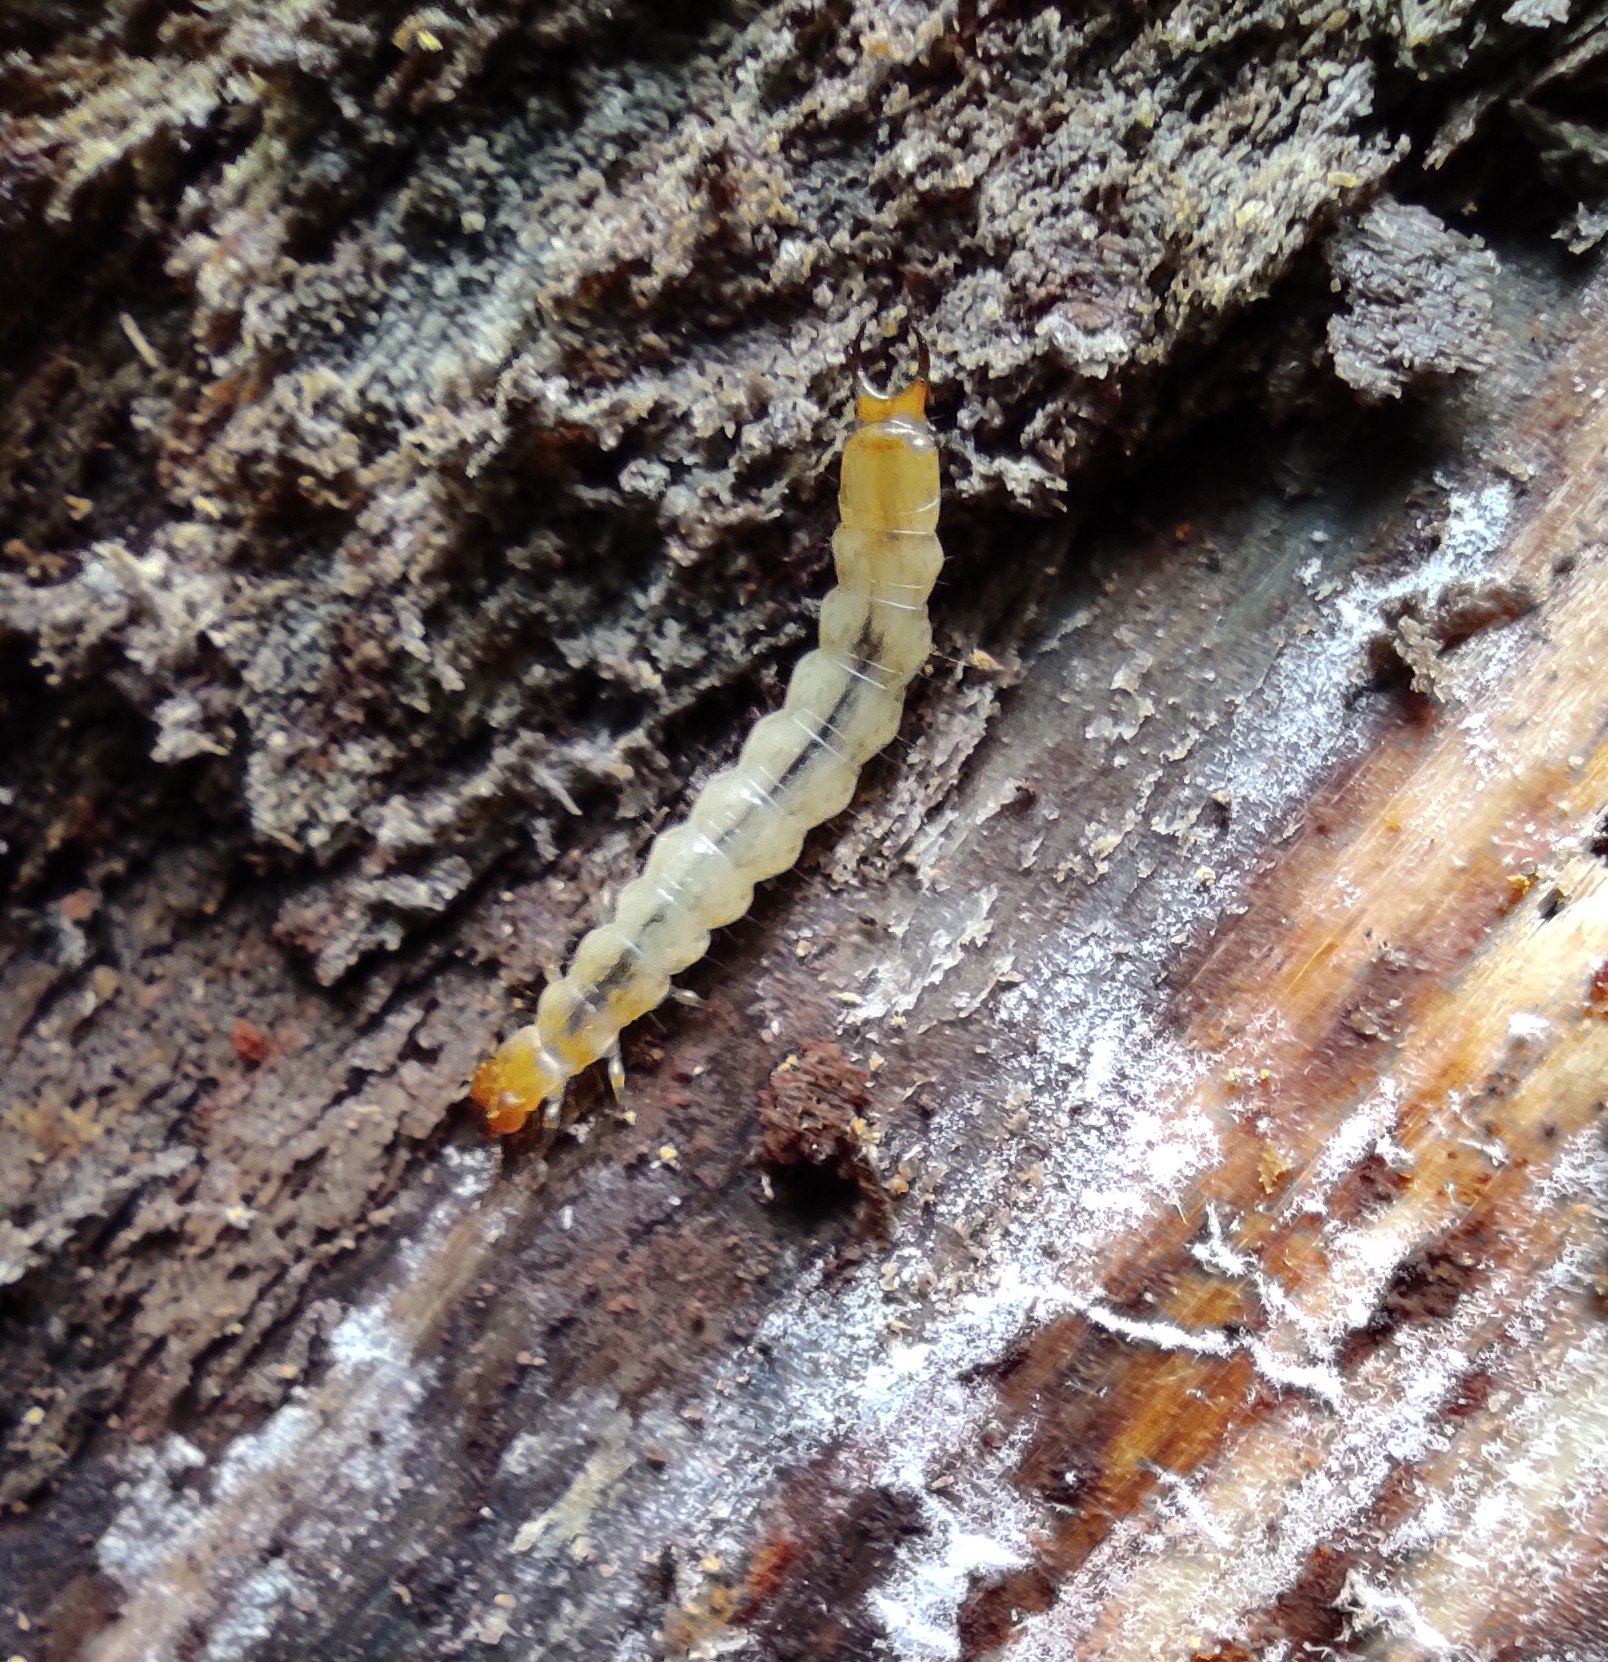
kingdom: Animalia
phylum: Arthropoda
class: Insecta
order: Coleoptera
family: Pyrochroidae
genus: Schizotus
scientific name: Schizotus pectinicornis
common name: Scarce cardinal beetle
